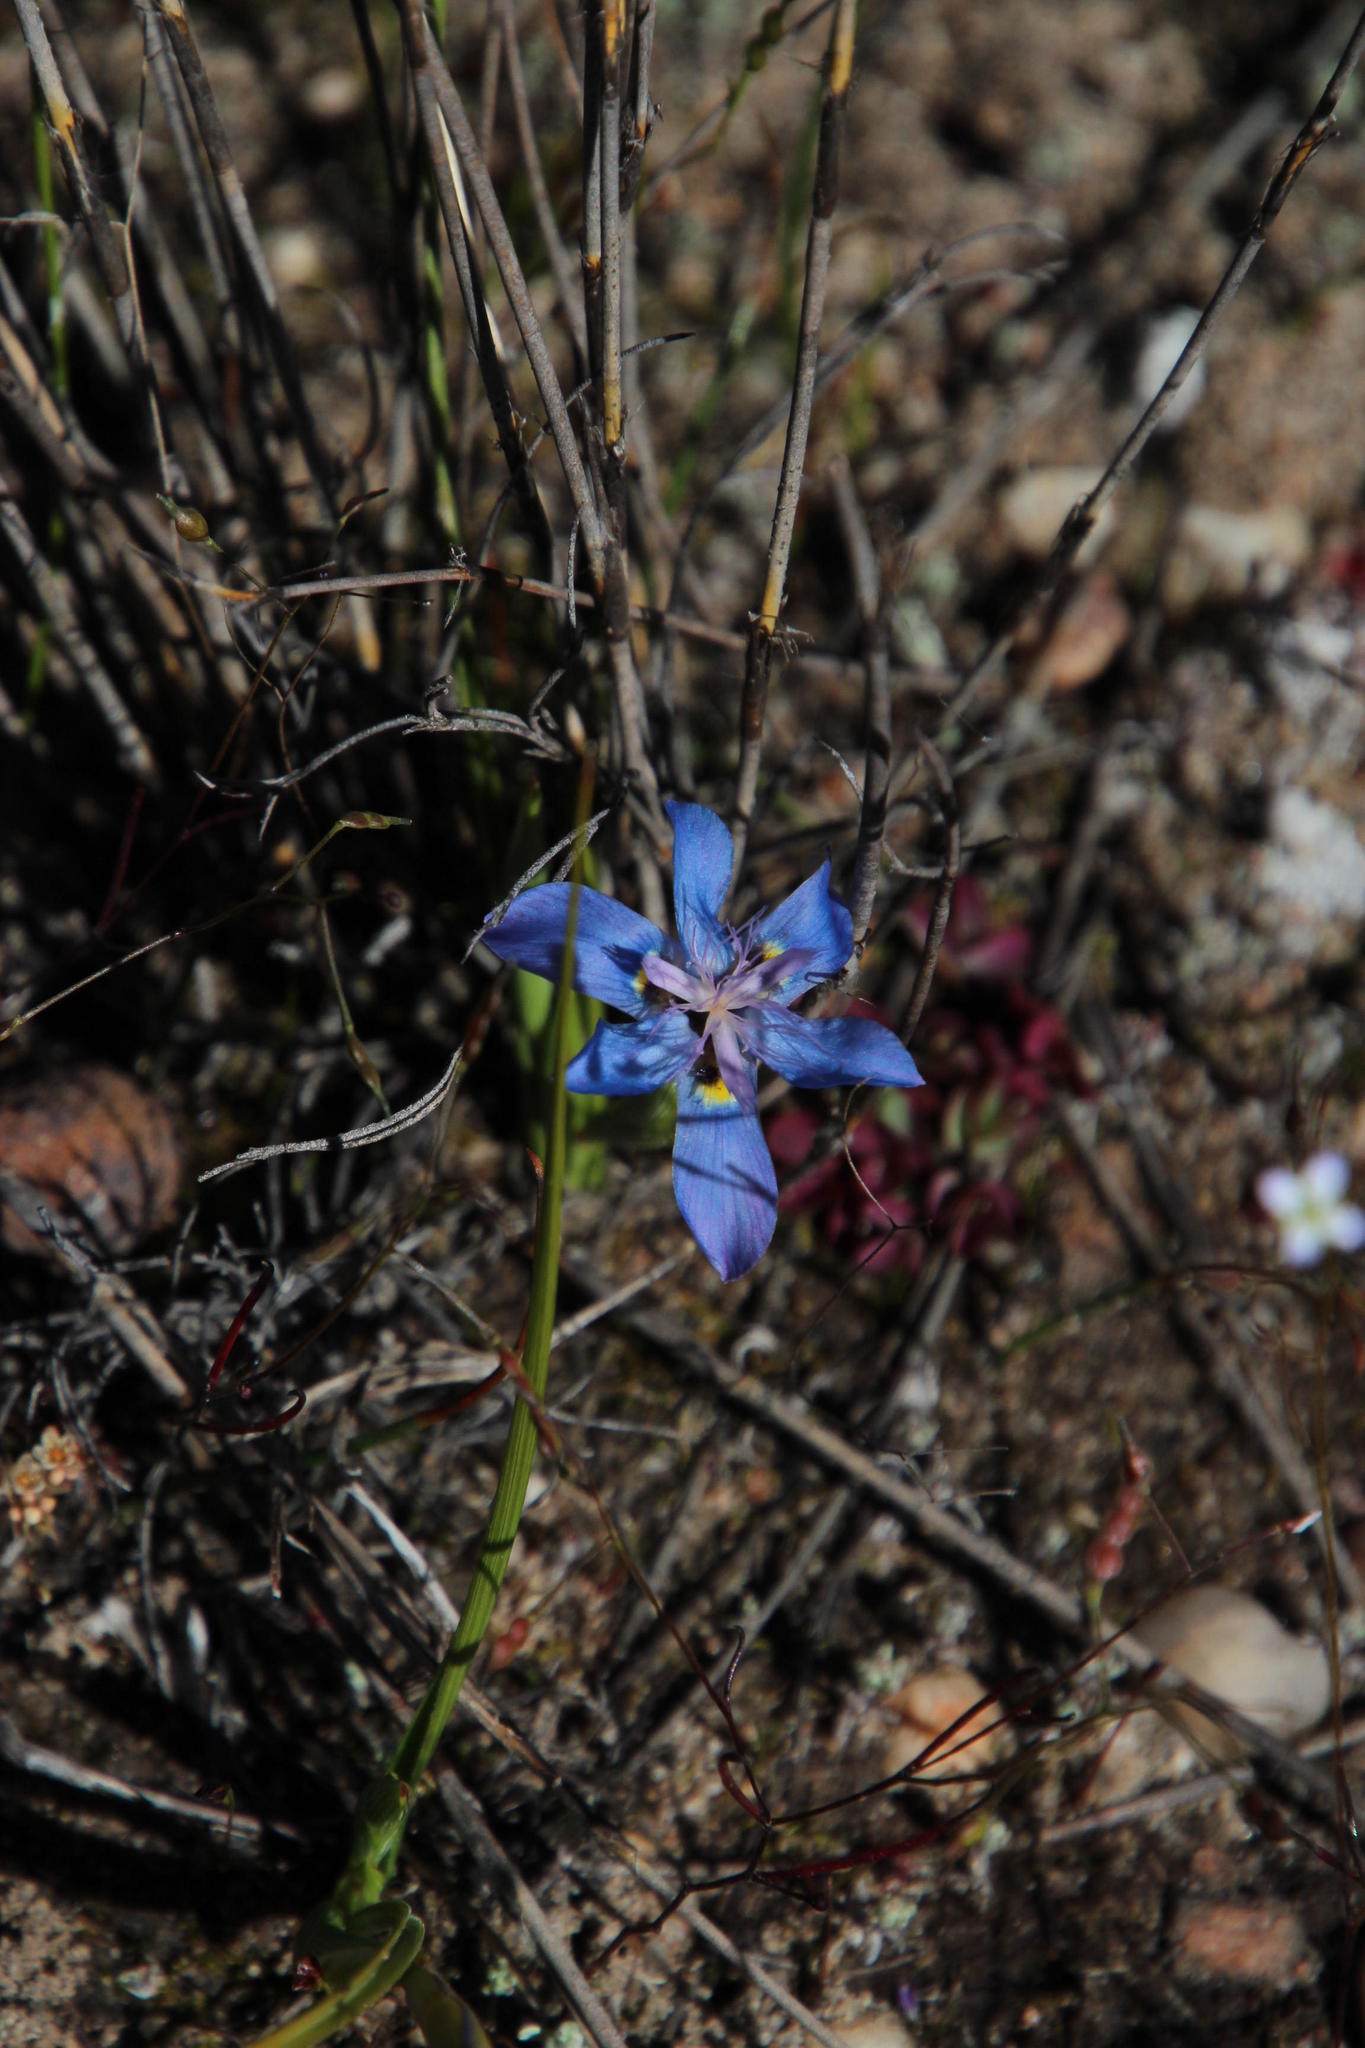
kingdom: Plantae
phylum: Tracheophyta
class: Liliopsida
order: Asparagales
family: Iridaceae
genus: Moraea
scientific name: Moraea lugubris
